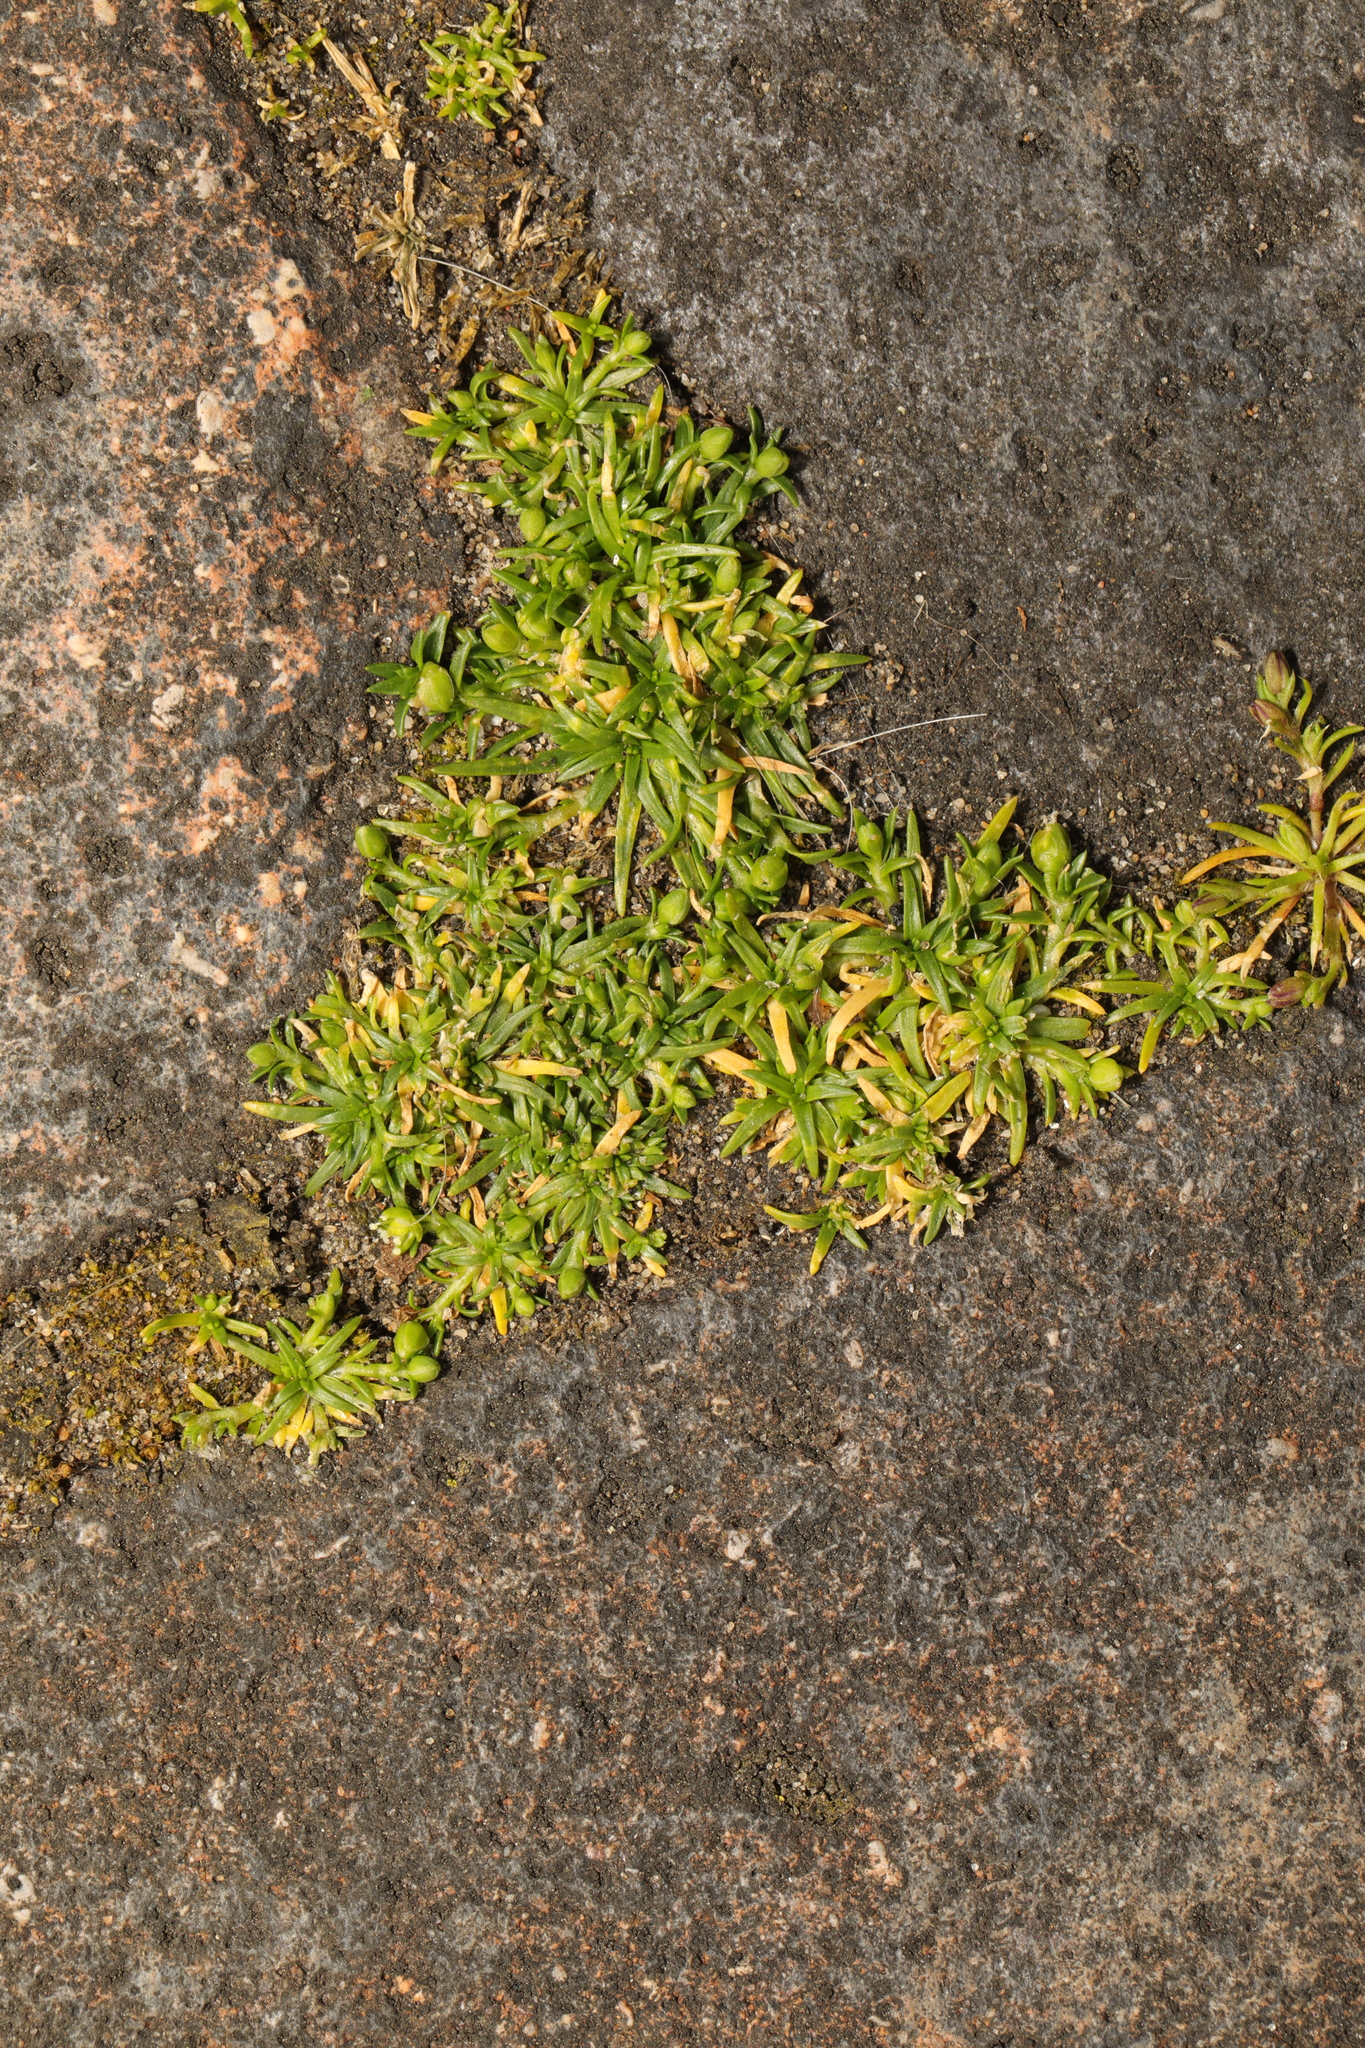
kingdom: Plantae
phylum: Tracheophyta
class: Magnoliopsida
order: Caryophyllales
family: Caryophyllaceae
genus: Sagina
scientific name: Sagina procumbens
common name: Procumbent pearlwort
